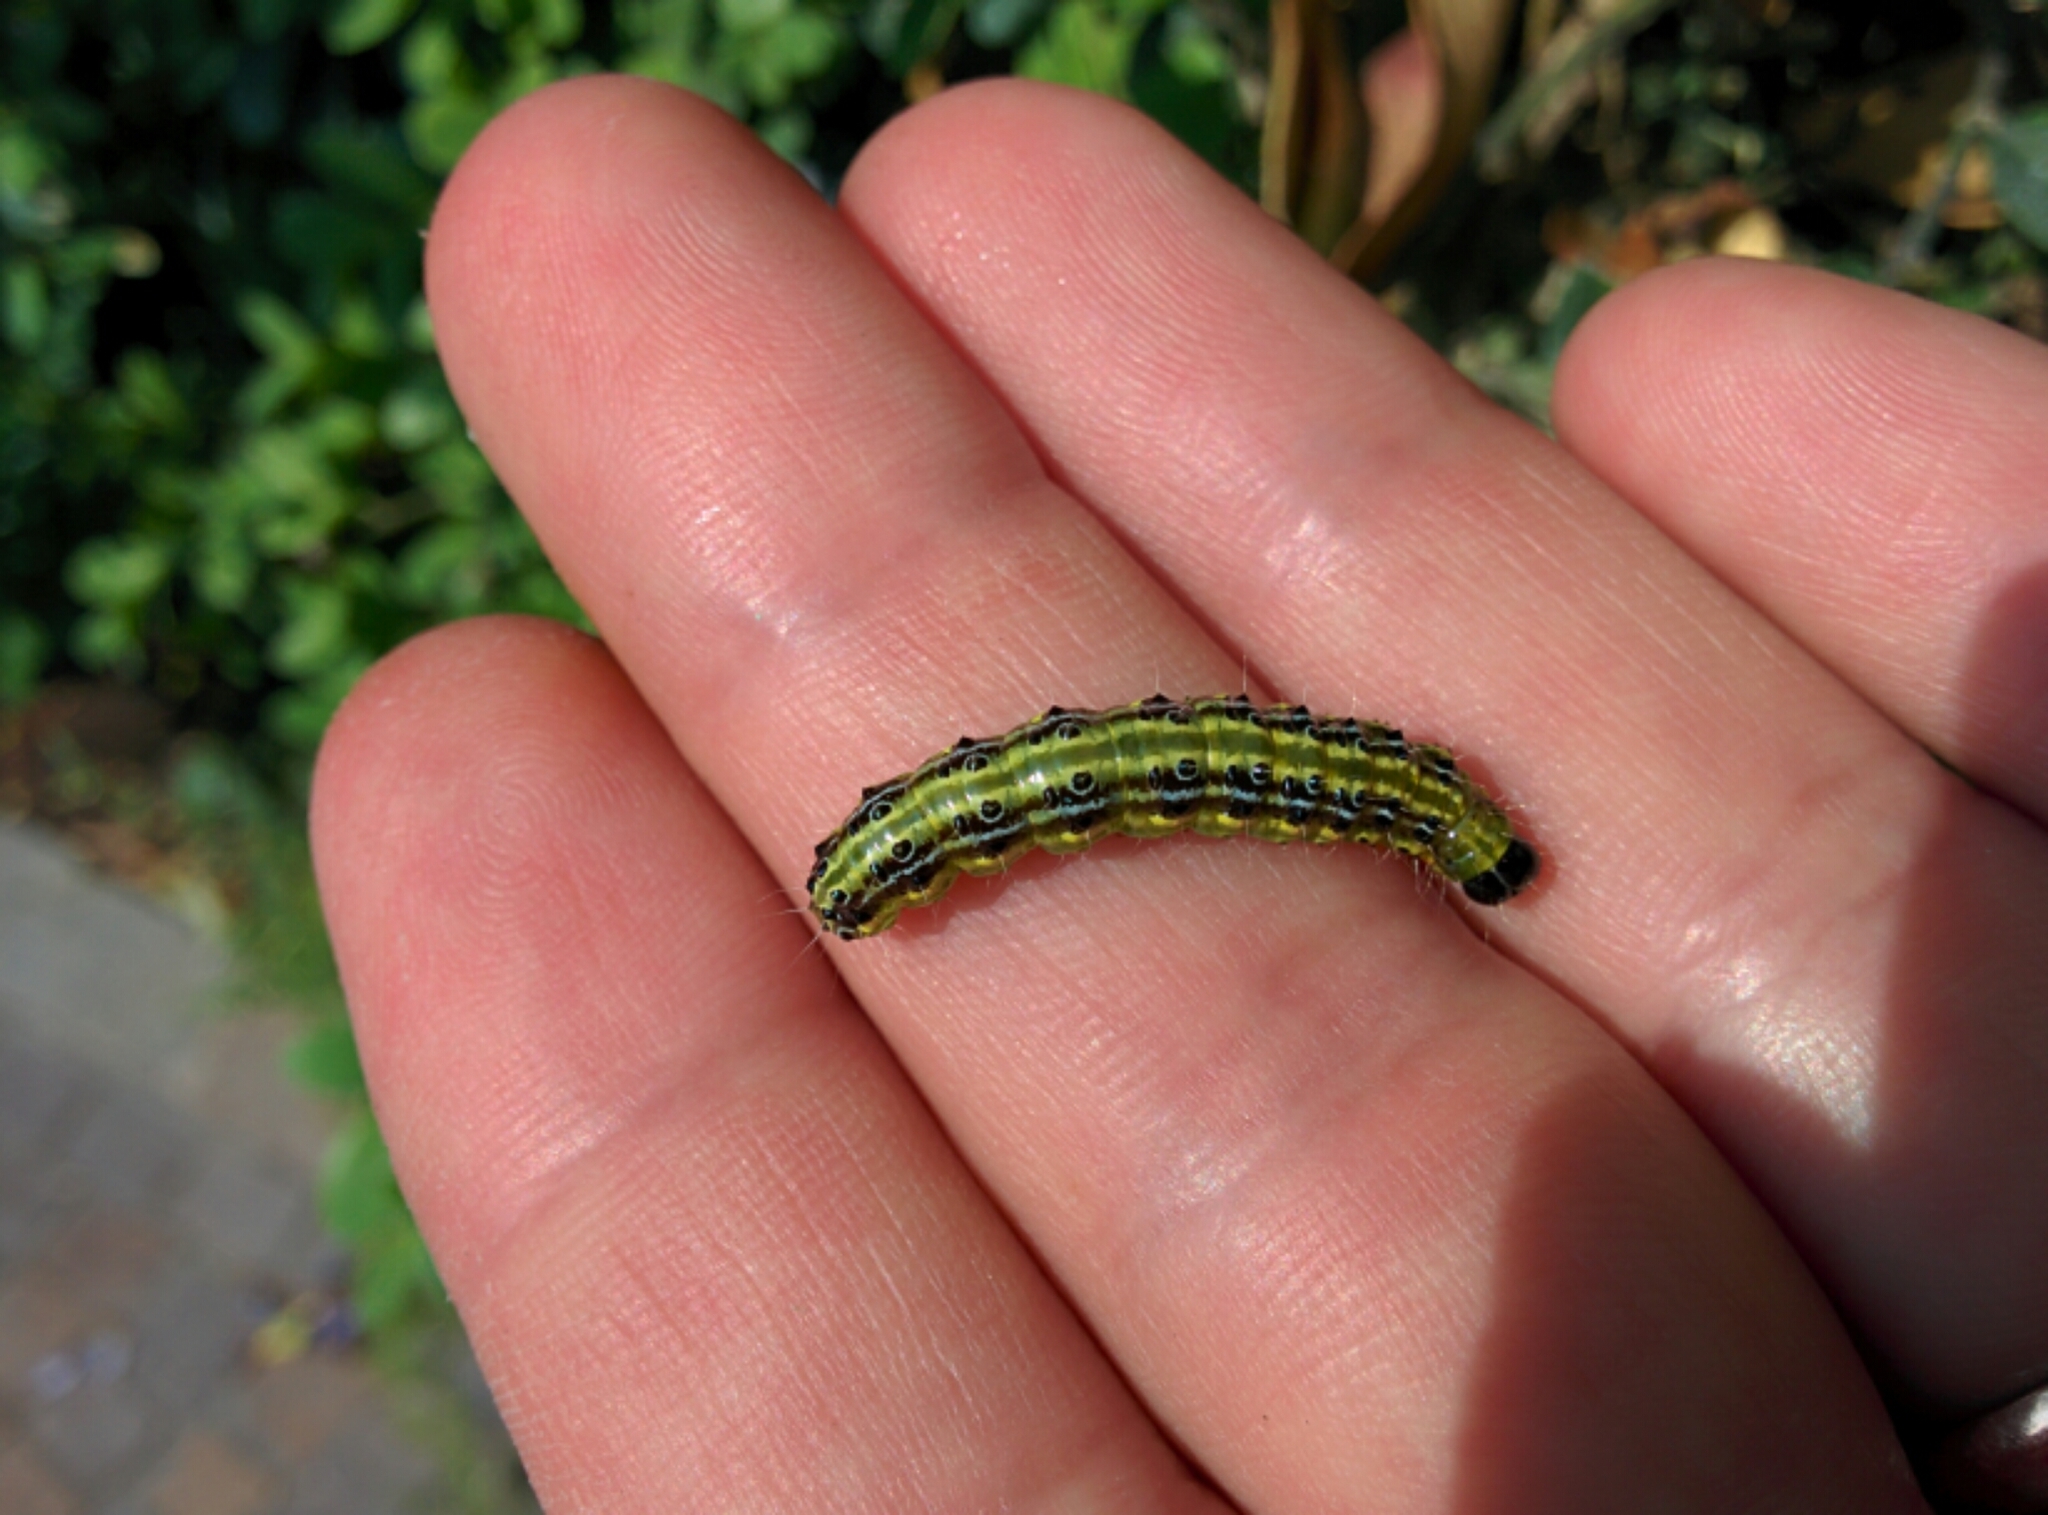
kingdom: Animalia
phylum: Arthropoda
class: Insecta
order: Lepidoptera
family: Crambidae
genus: Cydalima
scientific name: Cydalima perspectalis
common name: Box tree moth
